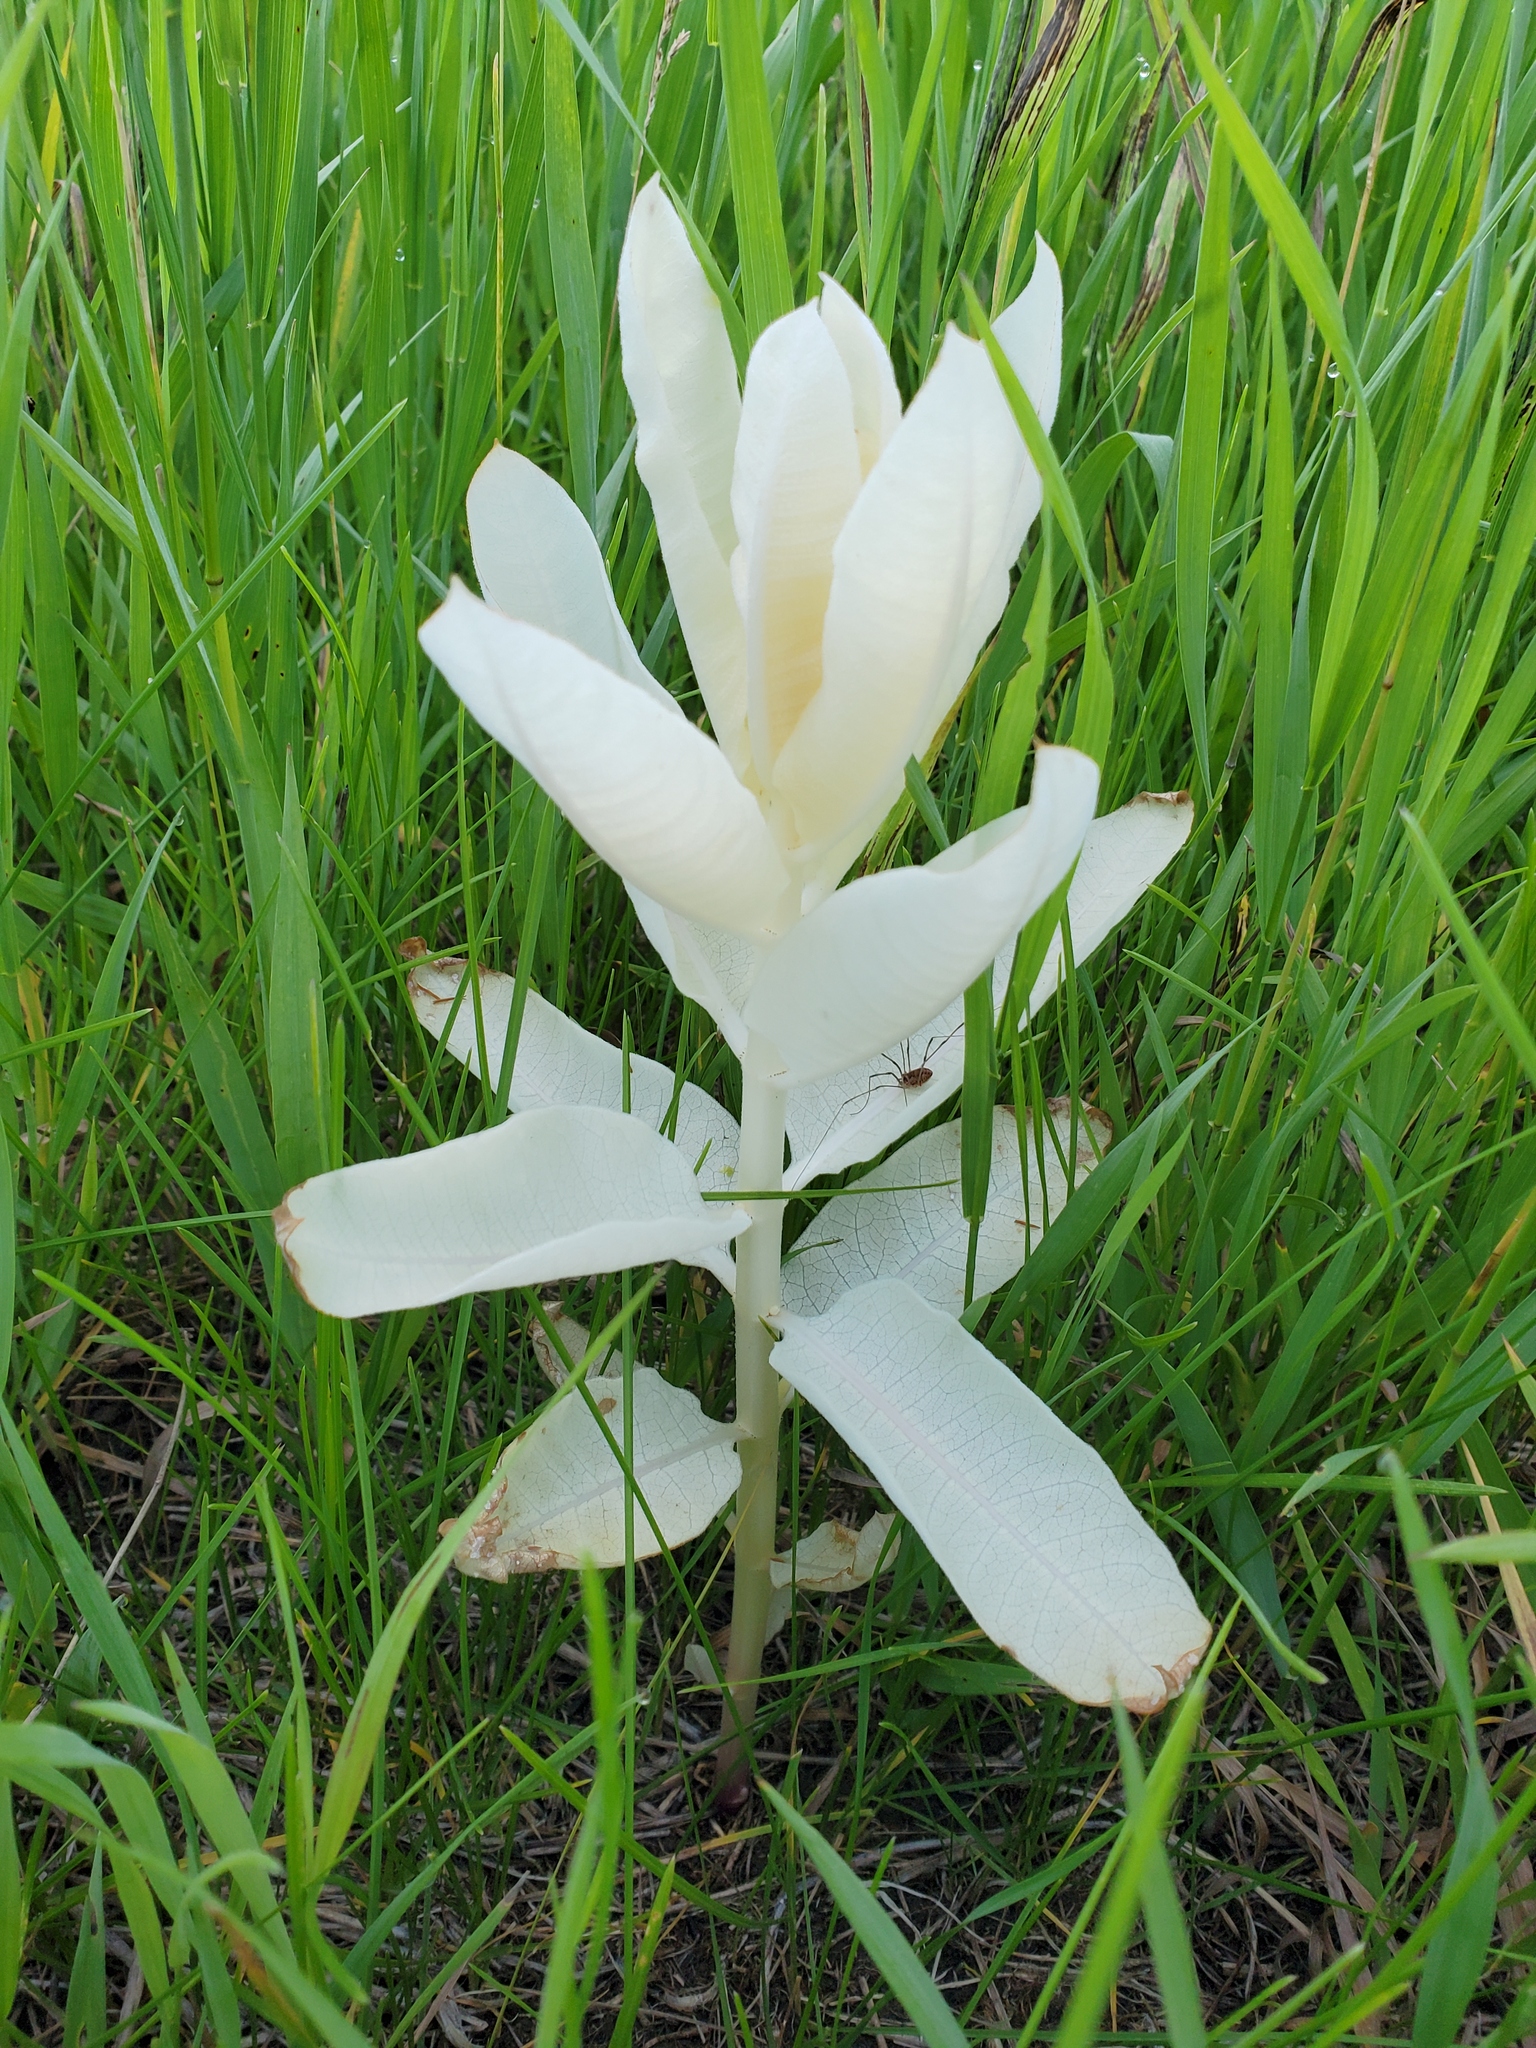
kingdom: Plantae
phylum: Tracheophyta
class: Magnoliopsida
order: Gentianales
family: Apocynaceae
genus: Asclepias
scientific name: Asclepias syriaca
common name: Common milkweed
